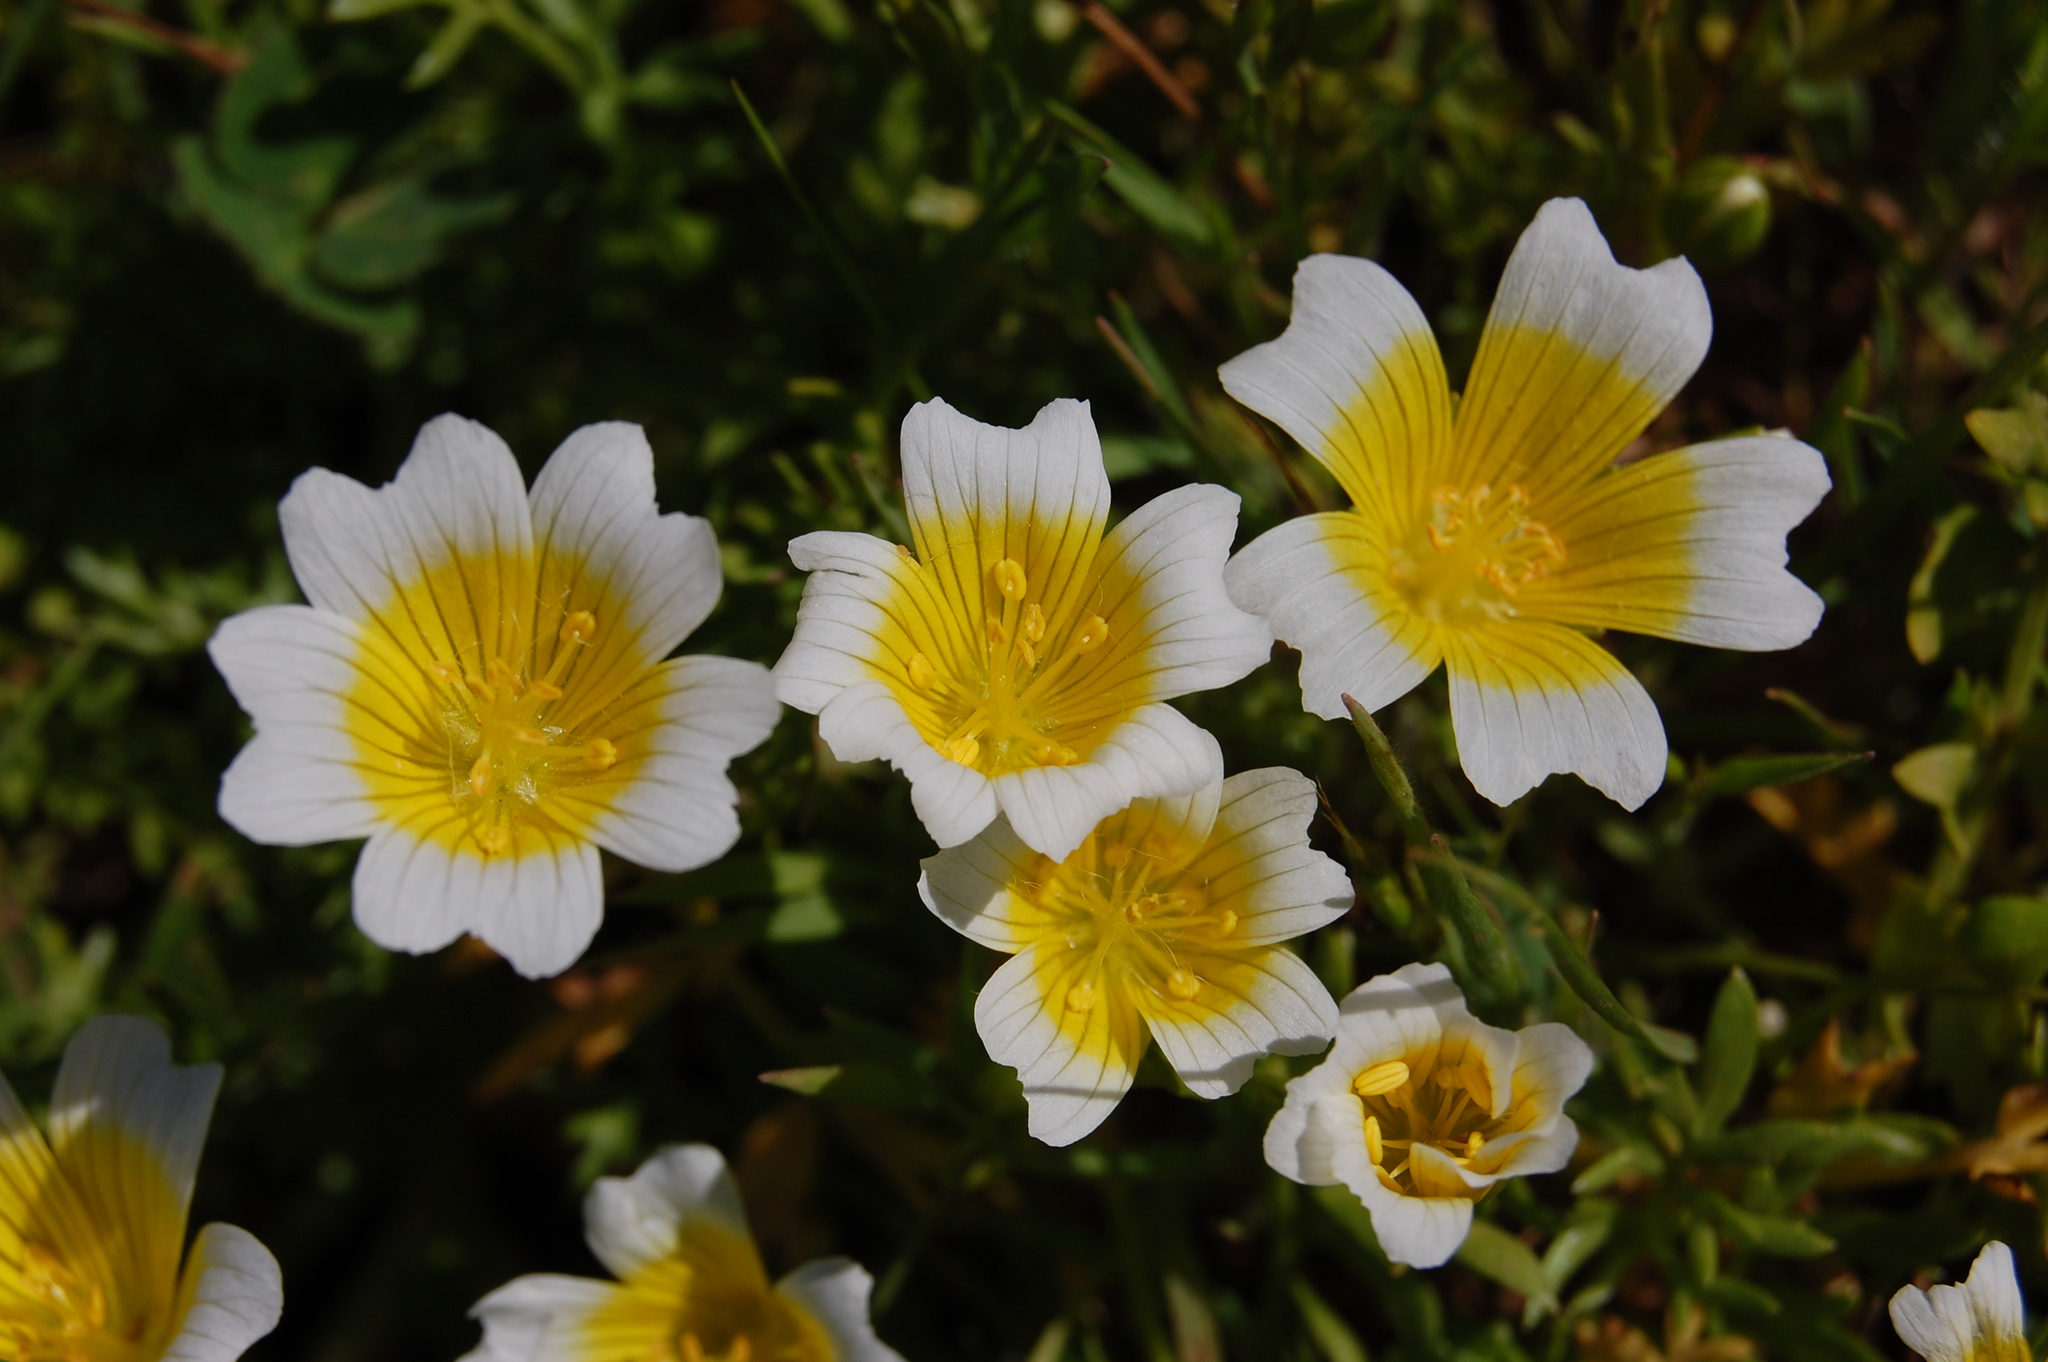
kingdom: Plantae
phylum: Tracheophyta
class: Magnoliopsida
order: Brassicales
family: Limnanthaceae
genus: Limnanthes
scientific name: Limnanthes douglasii
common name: Meadow-foam
